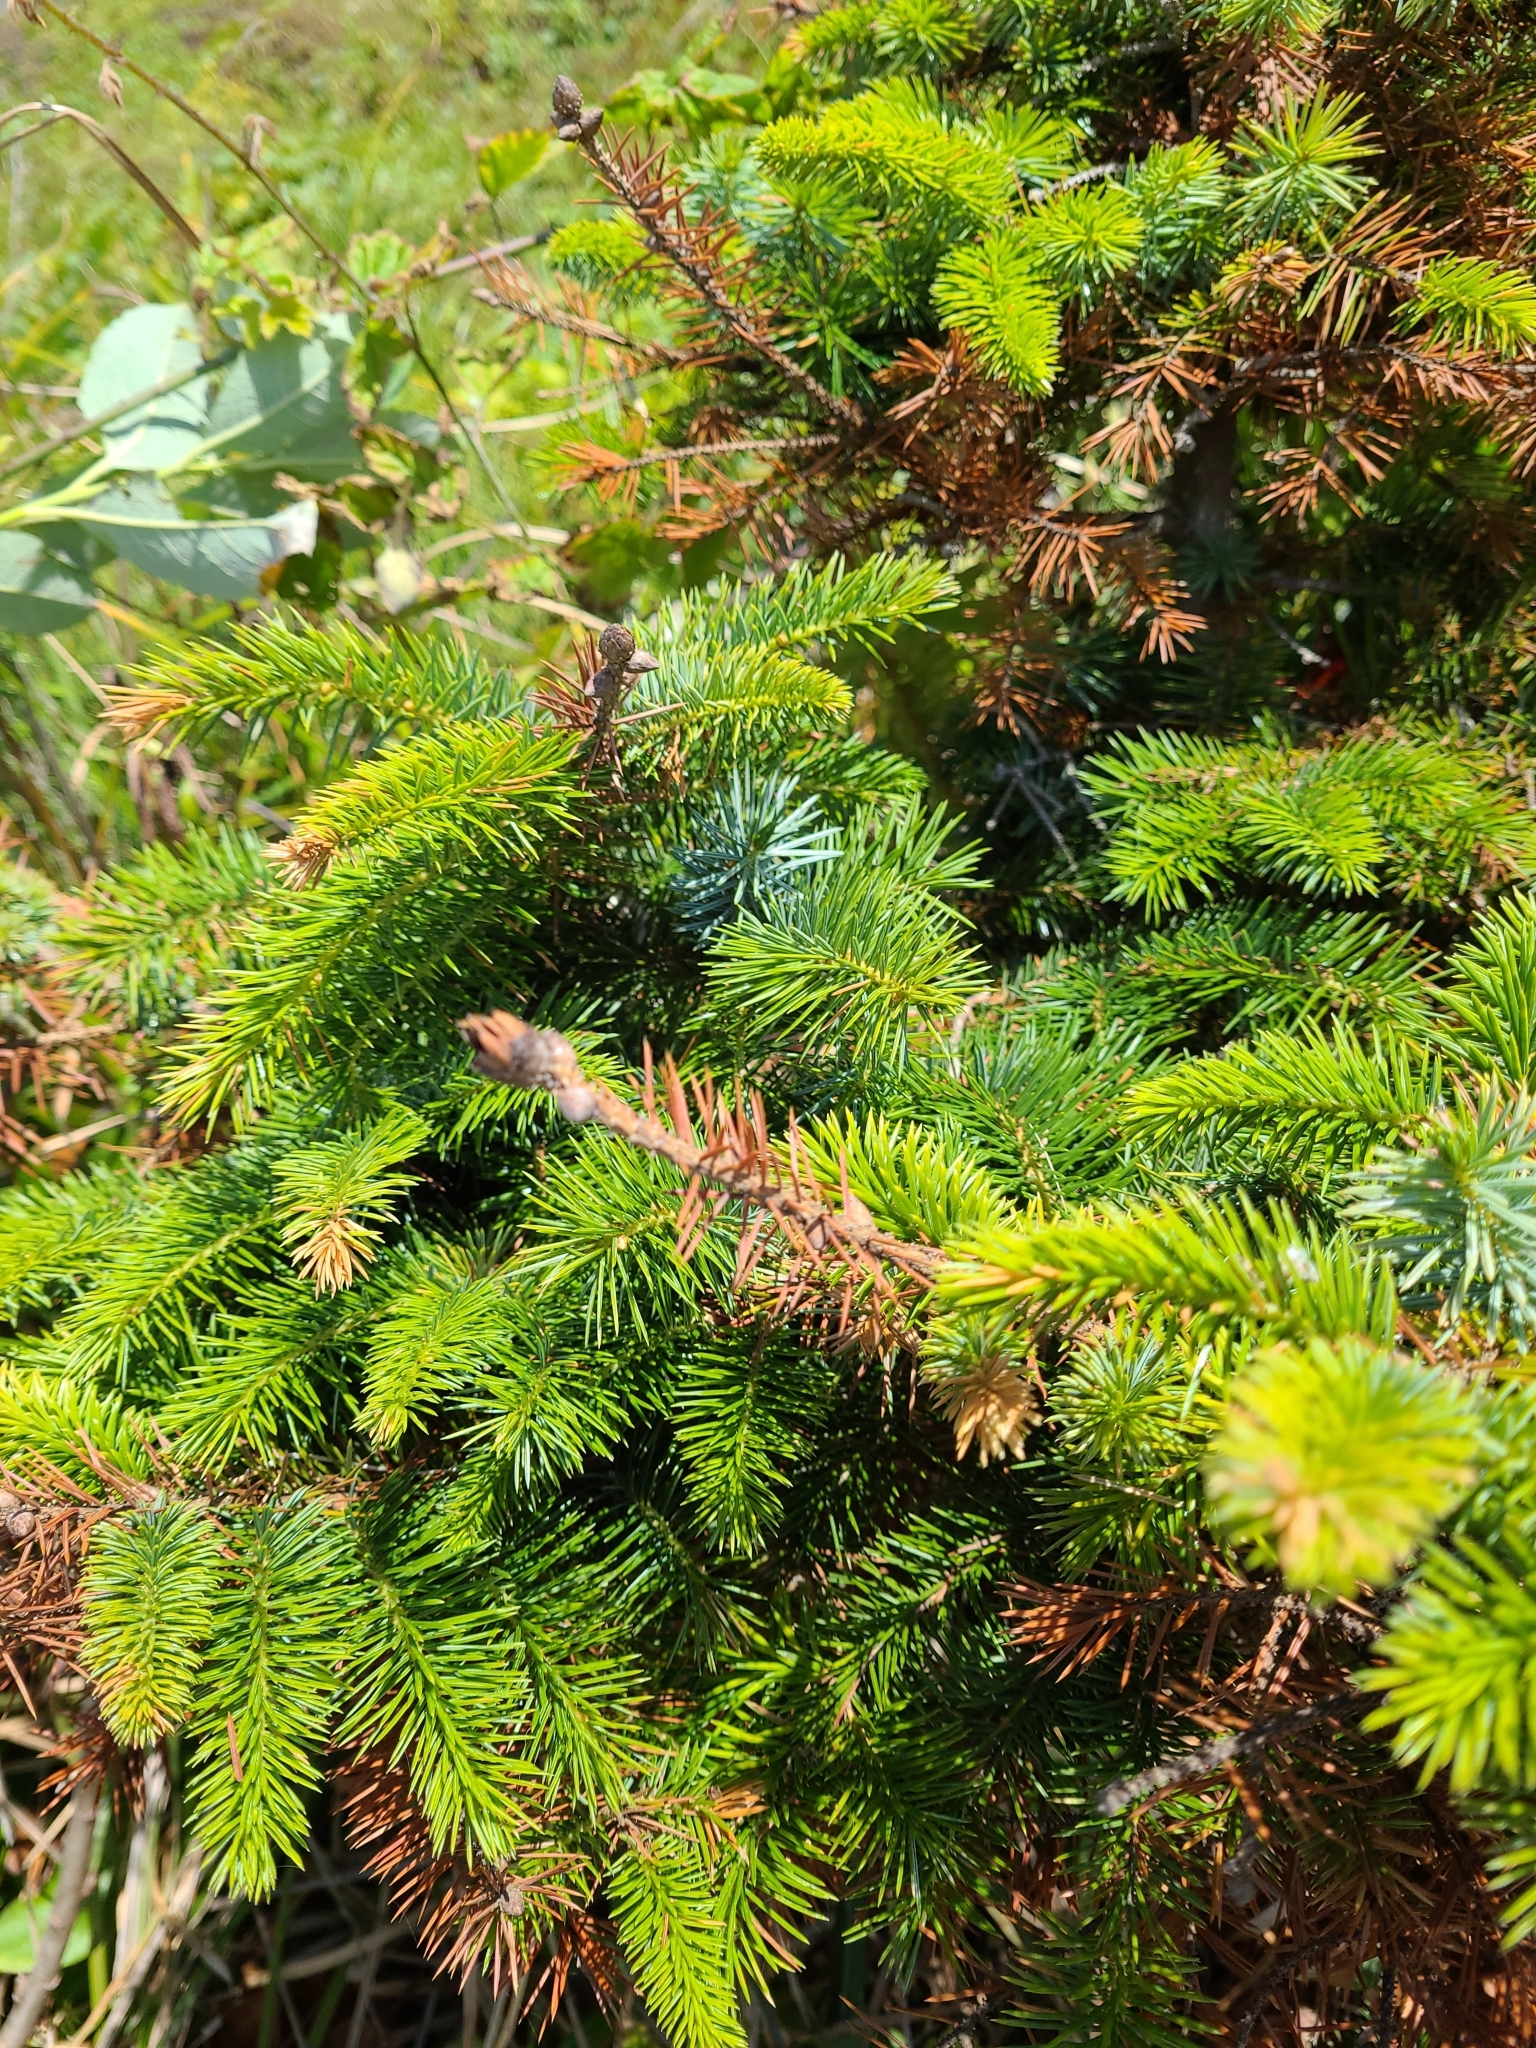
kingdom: Plantae
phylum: Tracheophyta
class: Pinopsida
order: Pinales
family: Pinaceae
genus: Picea
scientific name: Picea sitchensis
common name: Sitka spruce
